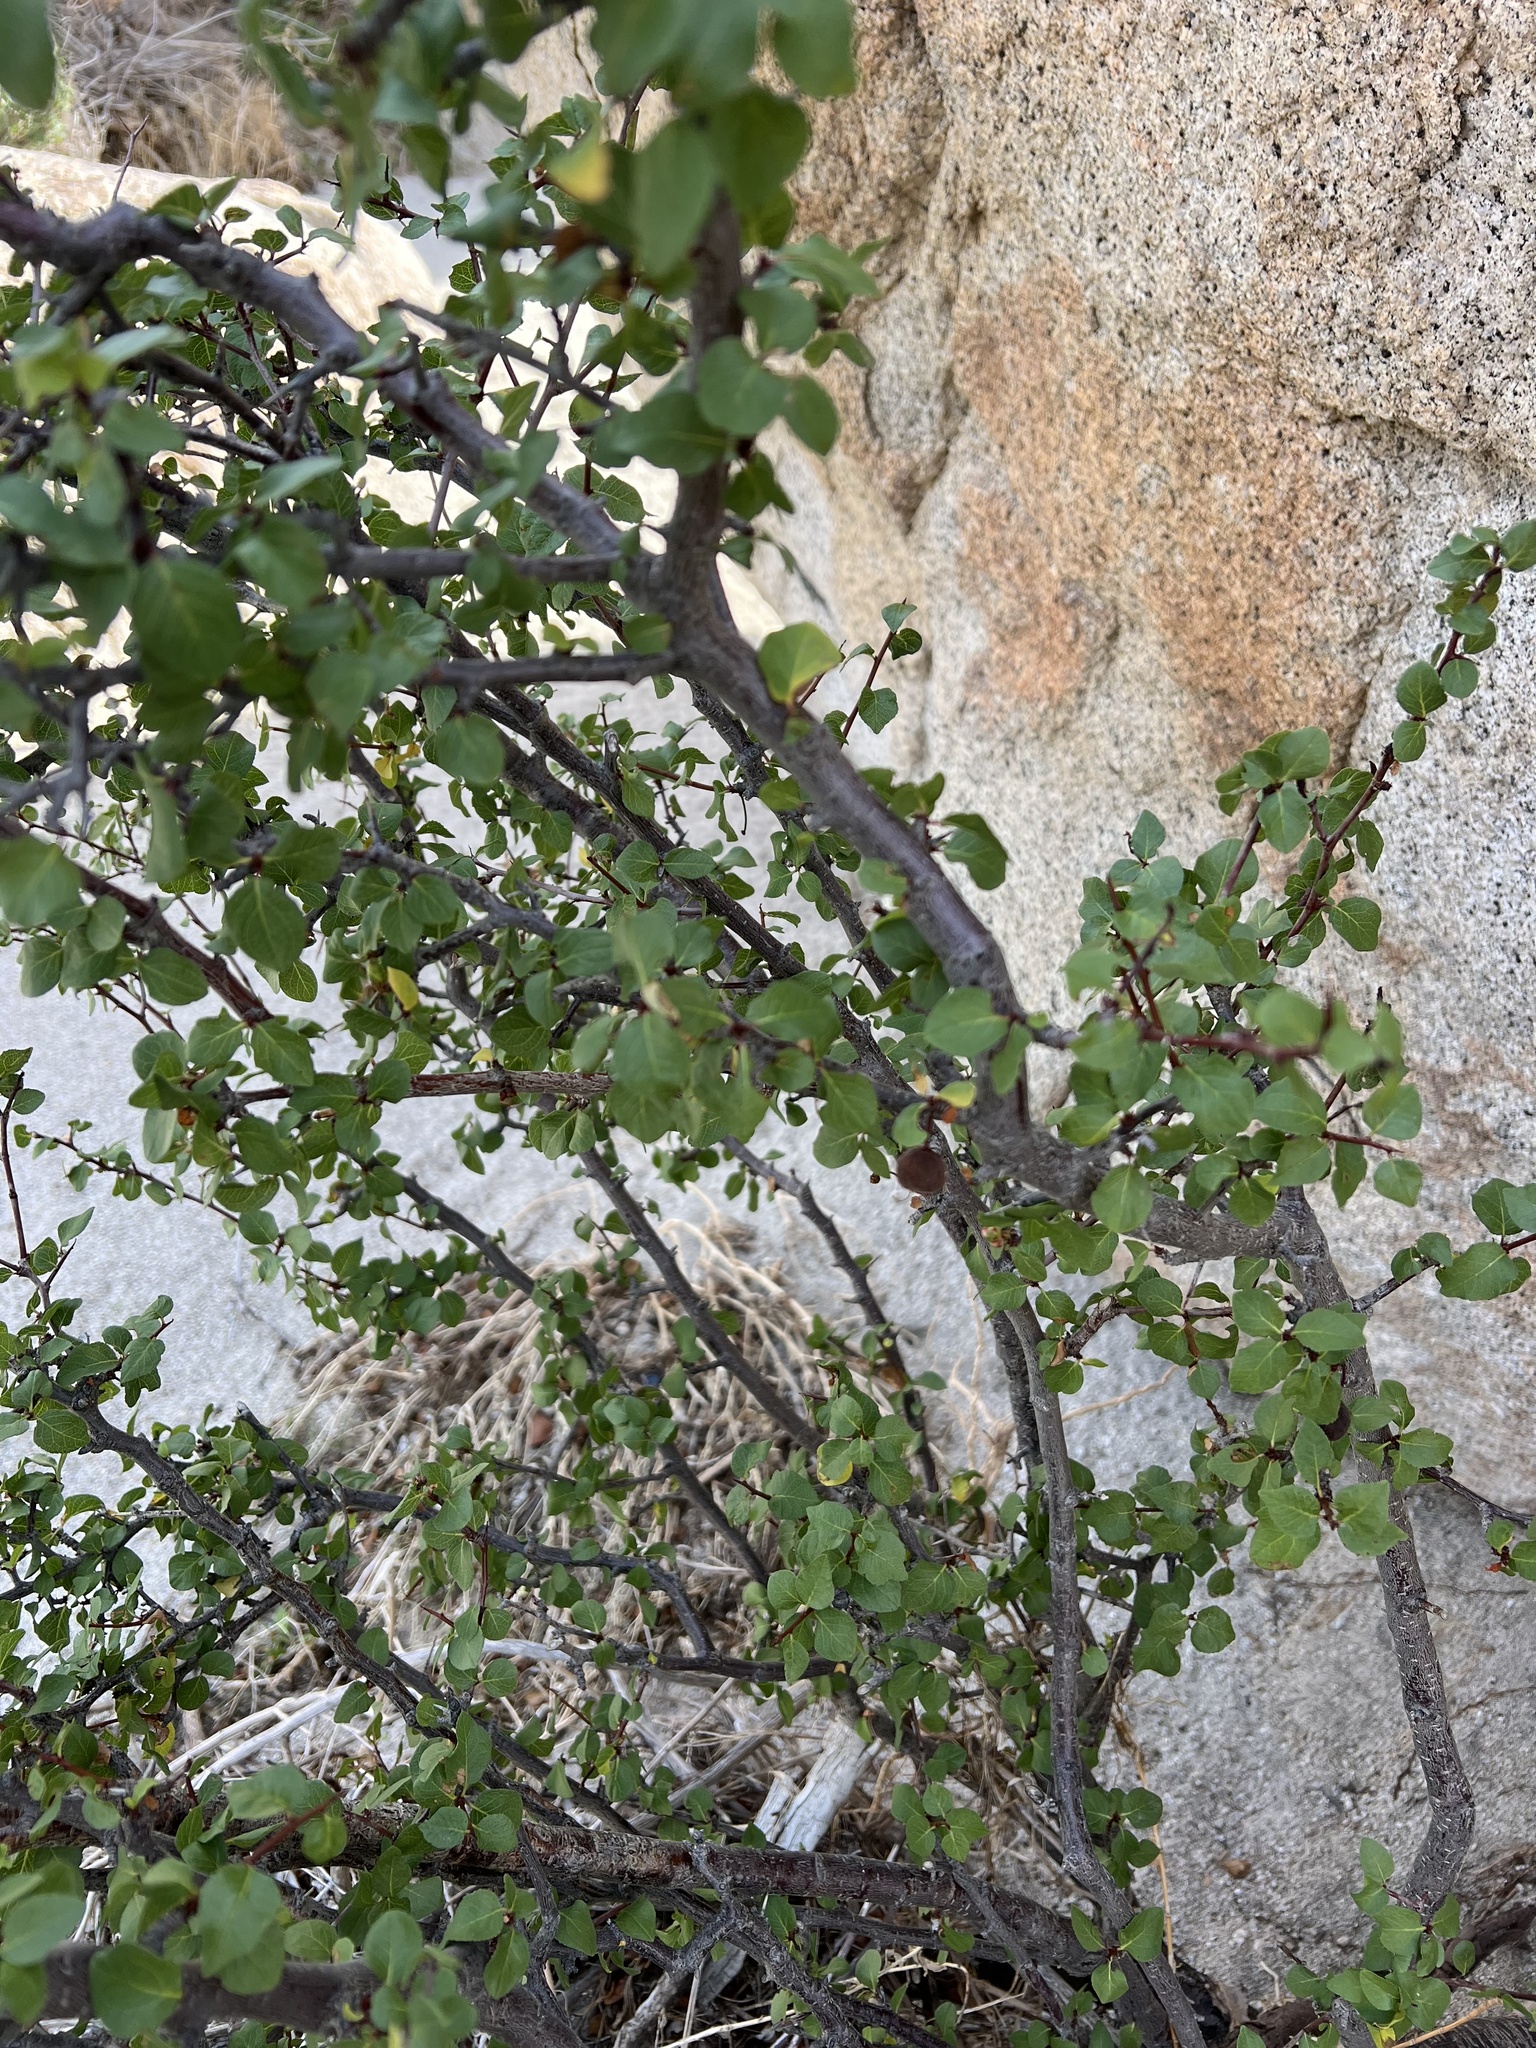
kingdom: Plantae
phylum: Tracheophyta
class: Magnoliopsida
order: Rosales
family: Rosaceae
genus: Prunus
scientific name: Prunus fremontii
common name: Desert apricot
